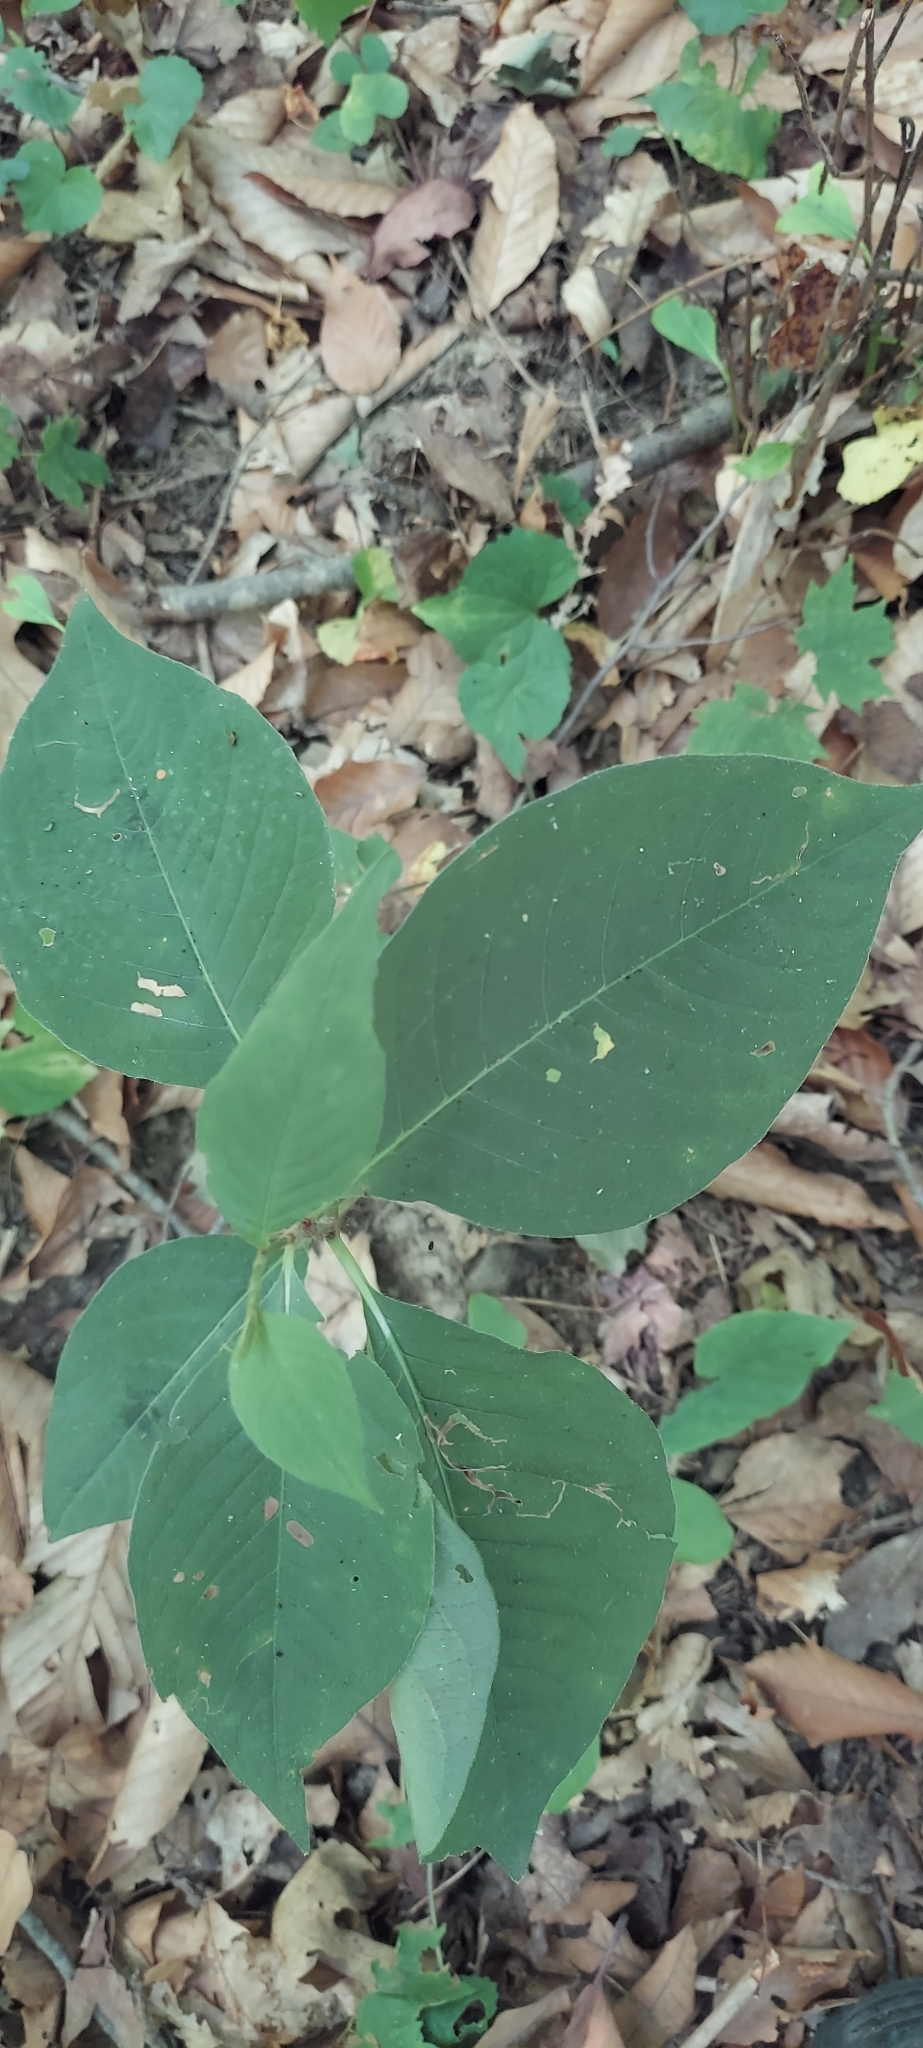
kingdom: Plantae
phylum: Tracheophyta
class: Magnoliopsida
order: Caryophyllales
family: Polygonaceae
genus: Persicaria
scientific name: Persicaria virginiana
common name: Jumpseed
